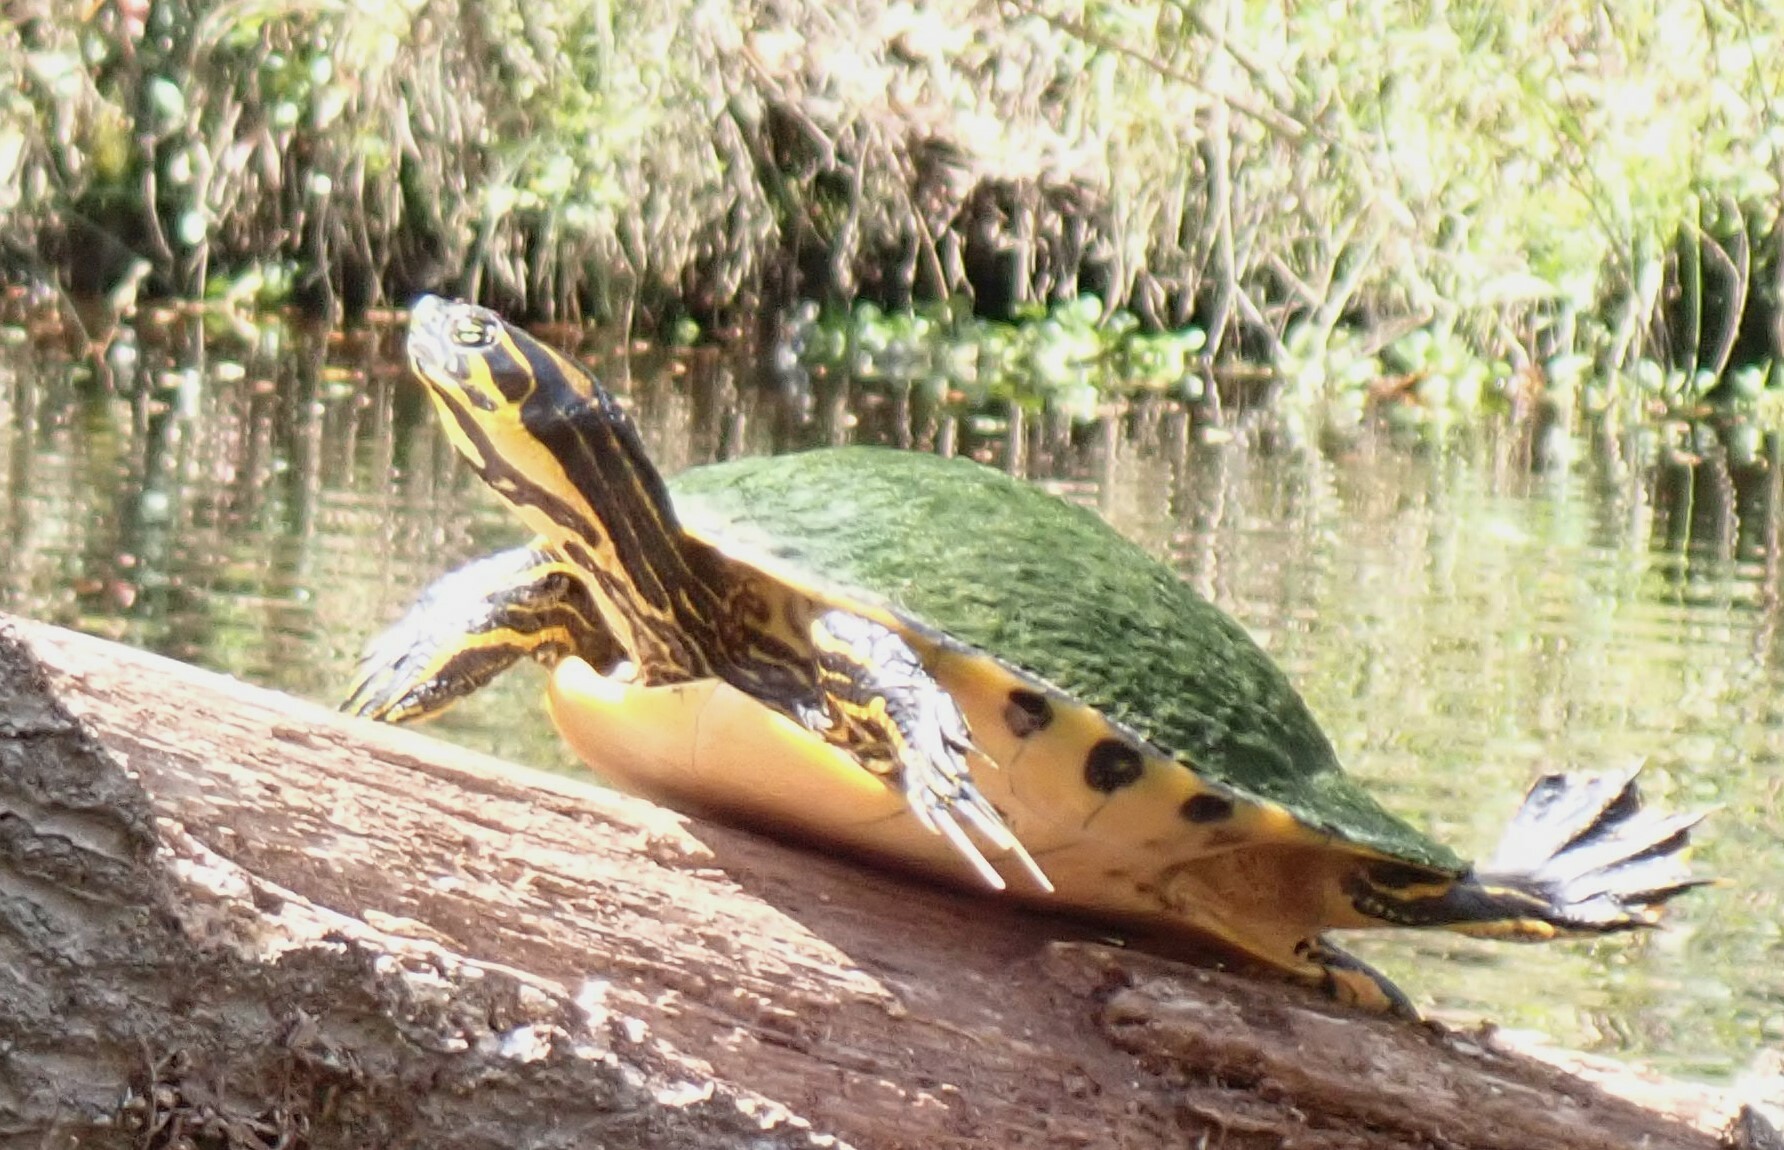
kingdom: Animalia
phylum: Chordata
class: Testudines
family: Emydidae
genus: Pseudemys
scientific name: Pseudemys concinna
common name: Eastern river cooter
